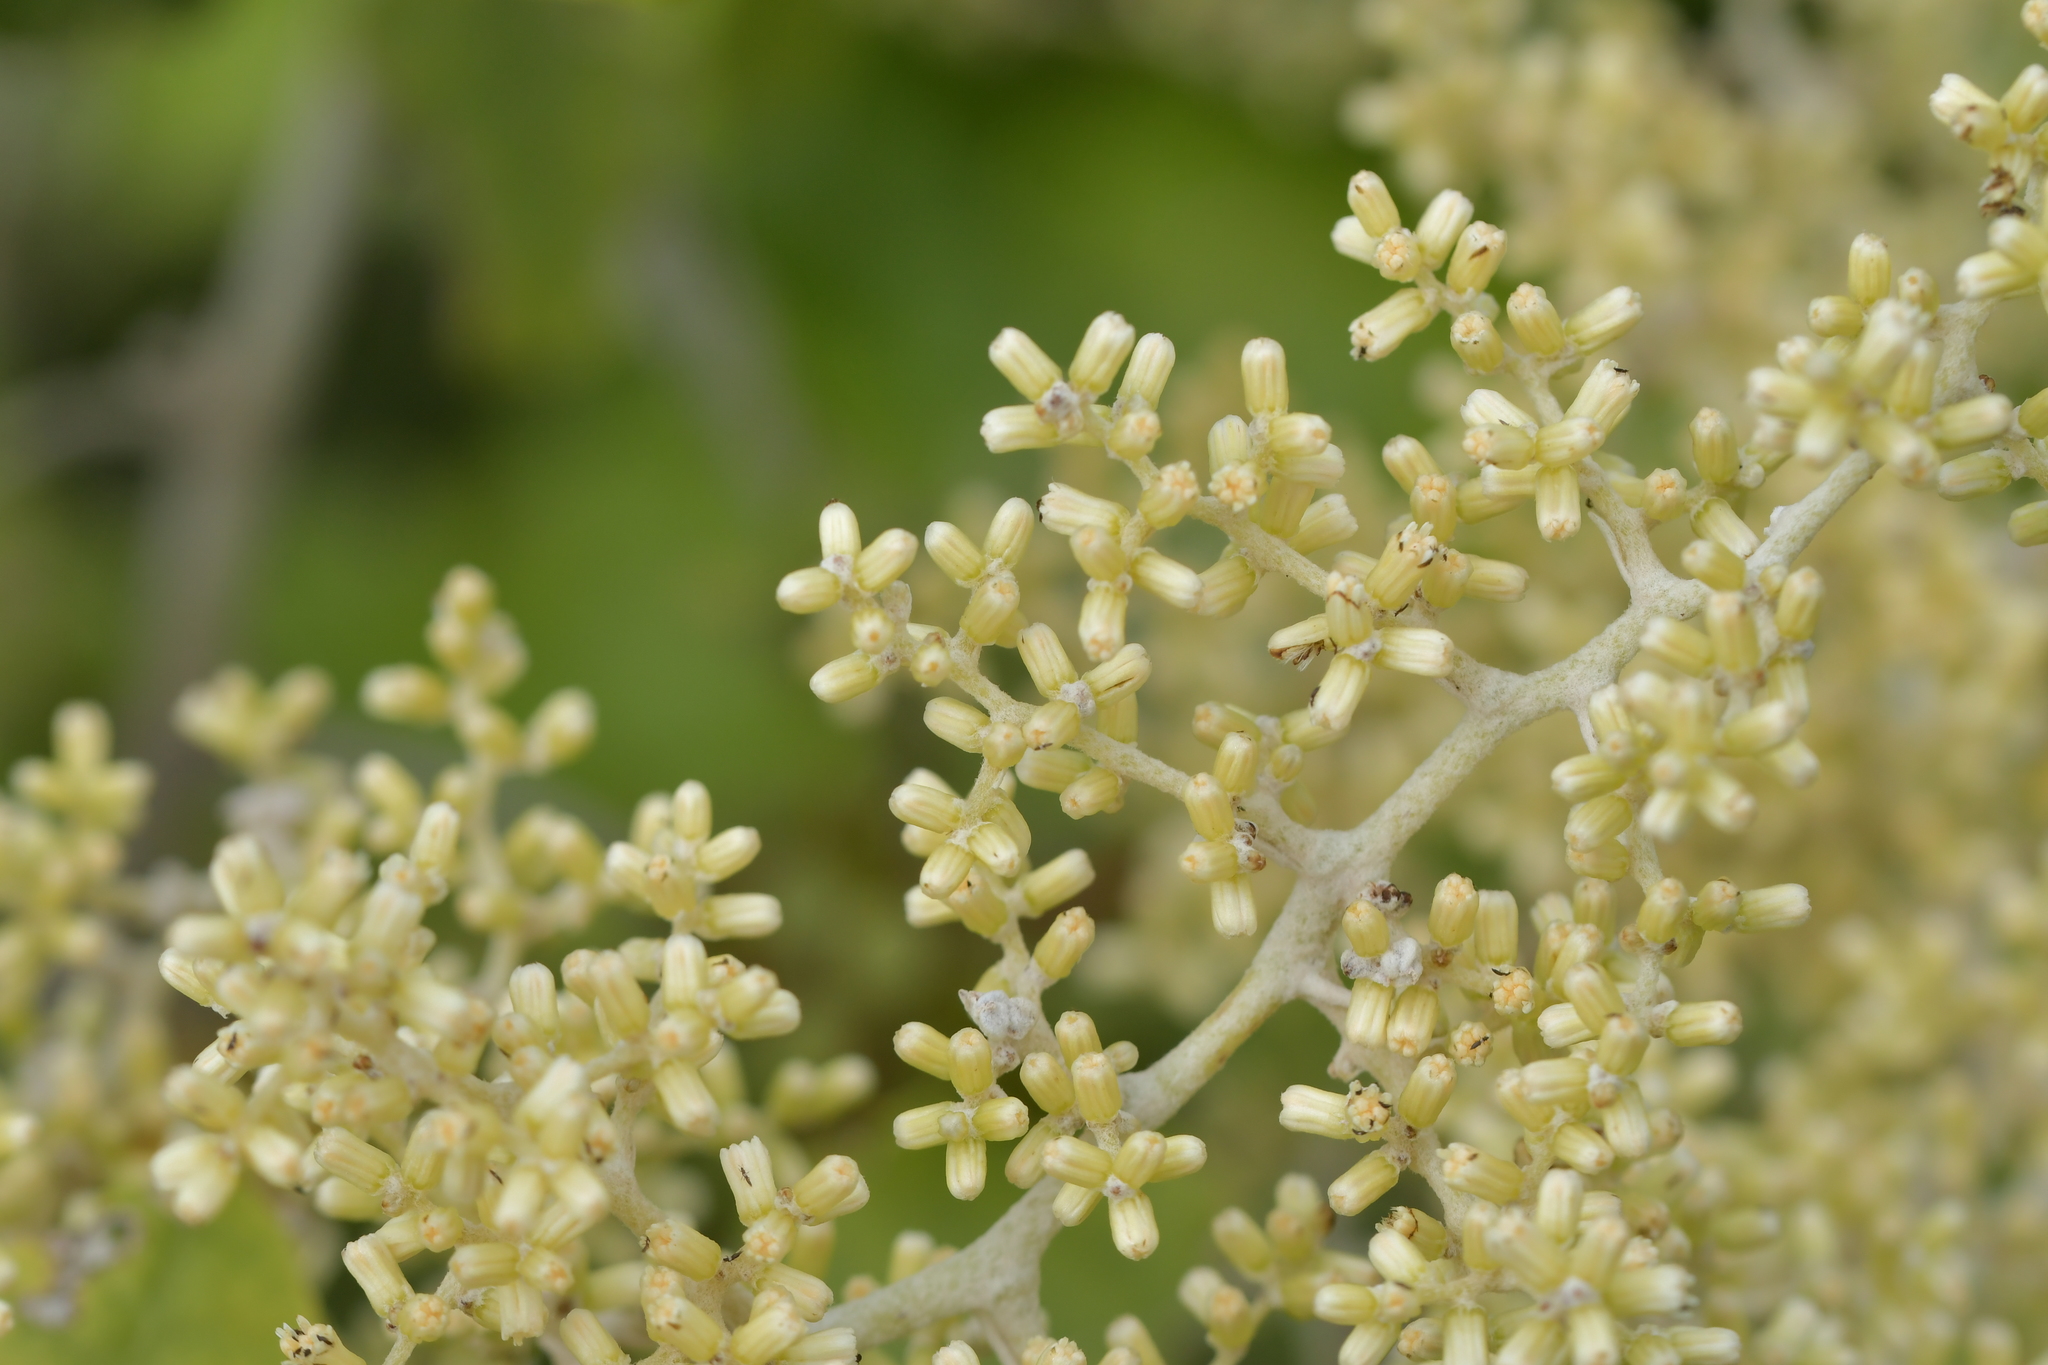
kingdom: Plantae
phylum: Tracheophyta
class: Magnoliopsida
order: Asterales
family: Asteraceae
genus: Brachyglottis
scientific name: Brachyglottis repanda
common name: Hedge ragwort
